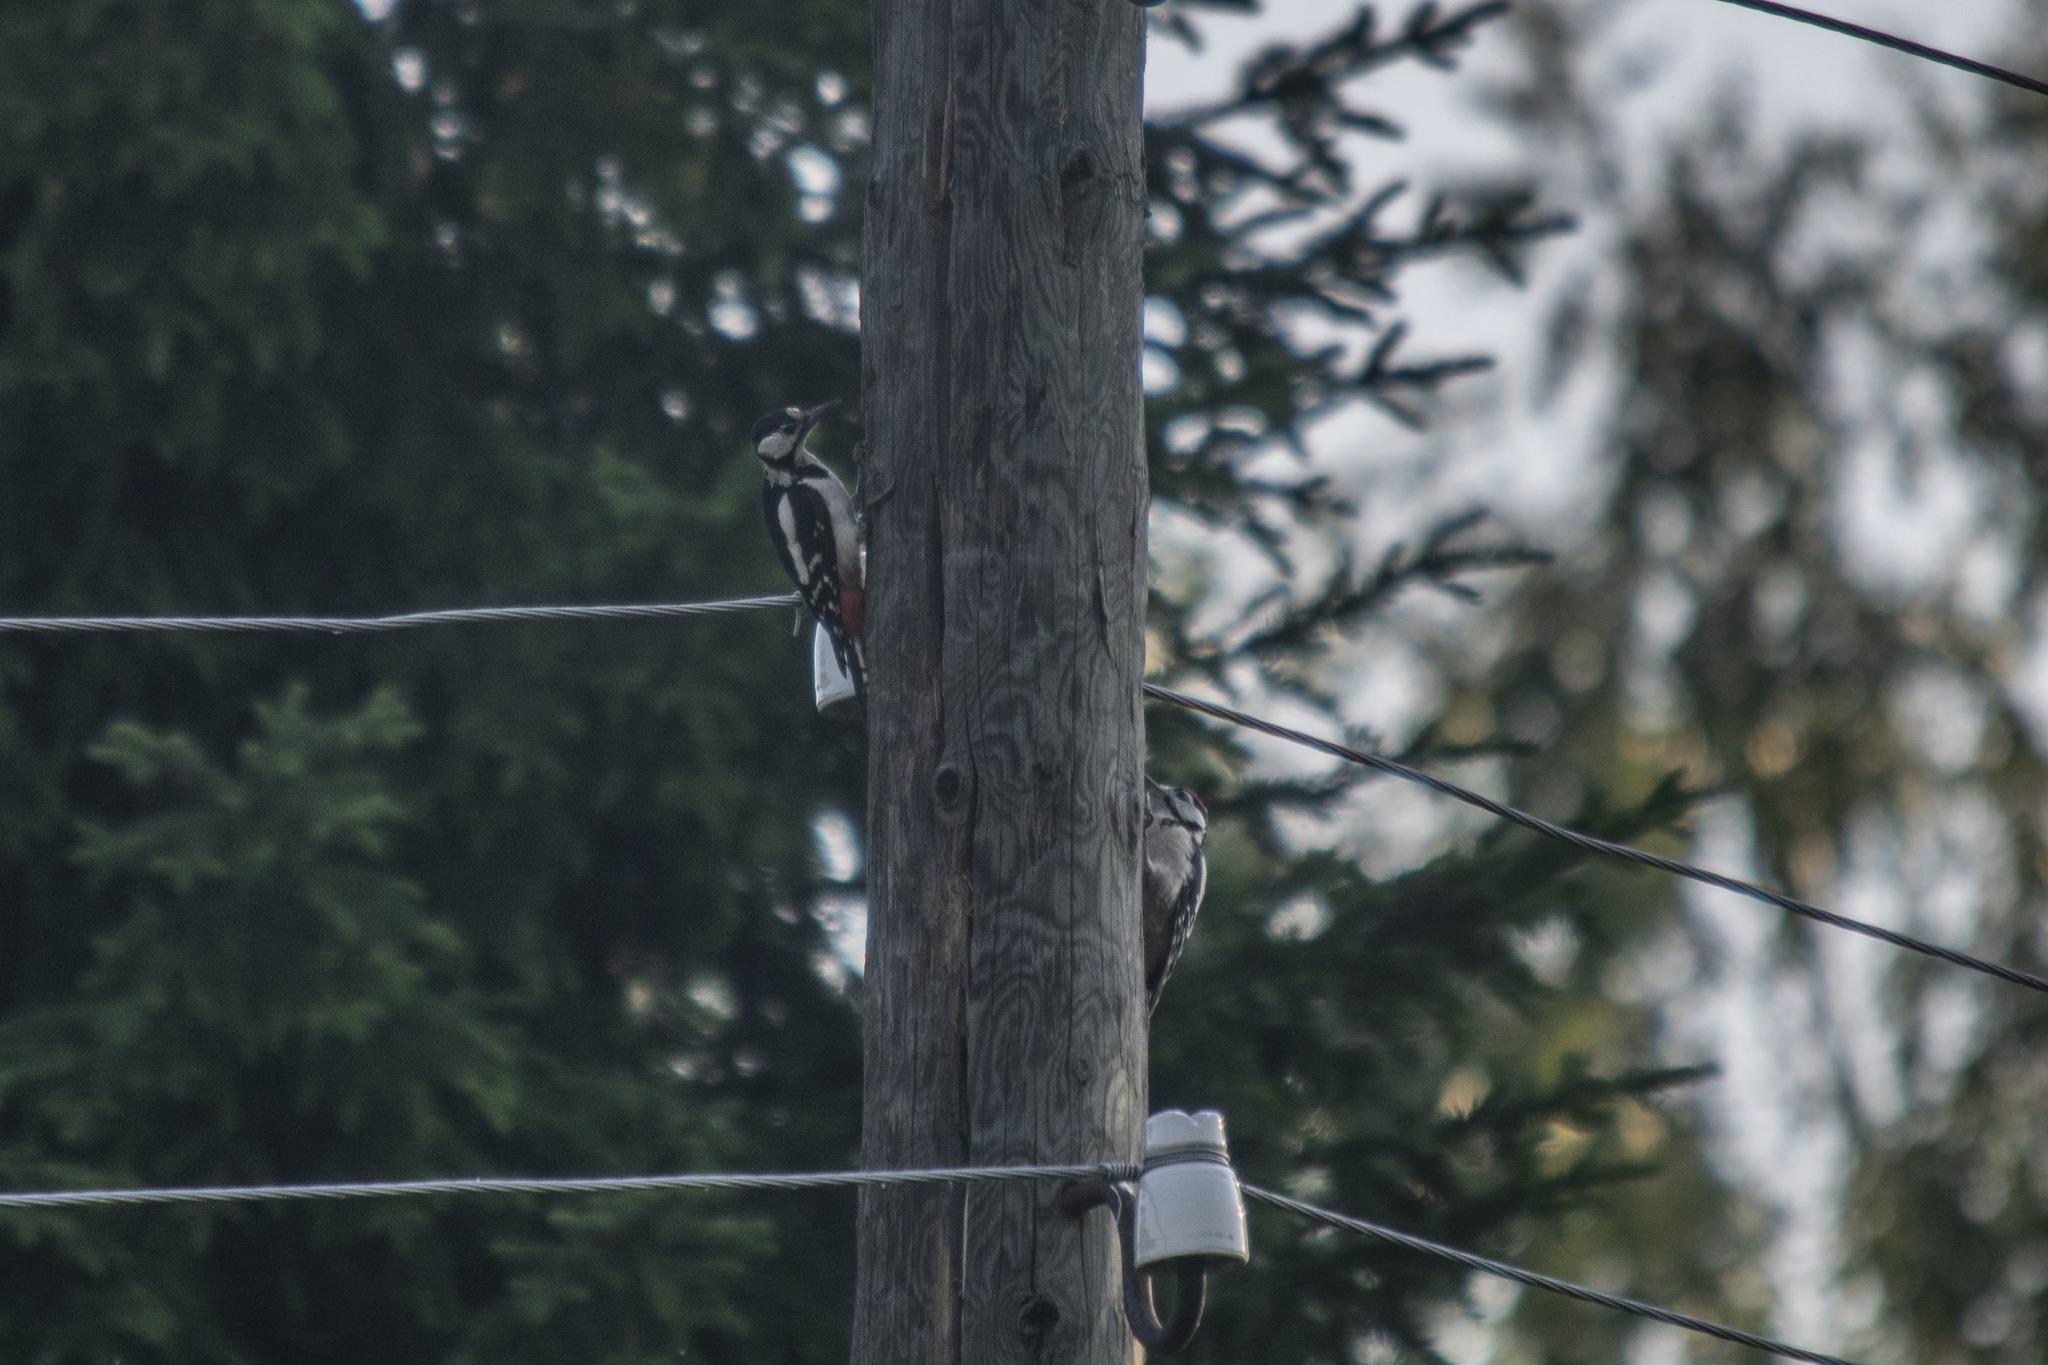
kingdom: Animalia
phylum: Chordata
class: Aves
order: Piciformes
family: Picidae
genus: Dendrocopos
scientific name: Dendrocopos major
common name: Great spotted woodpecker
